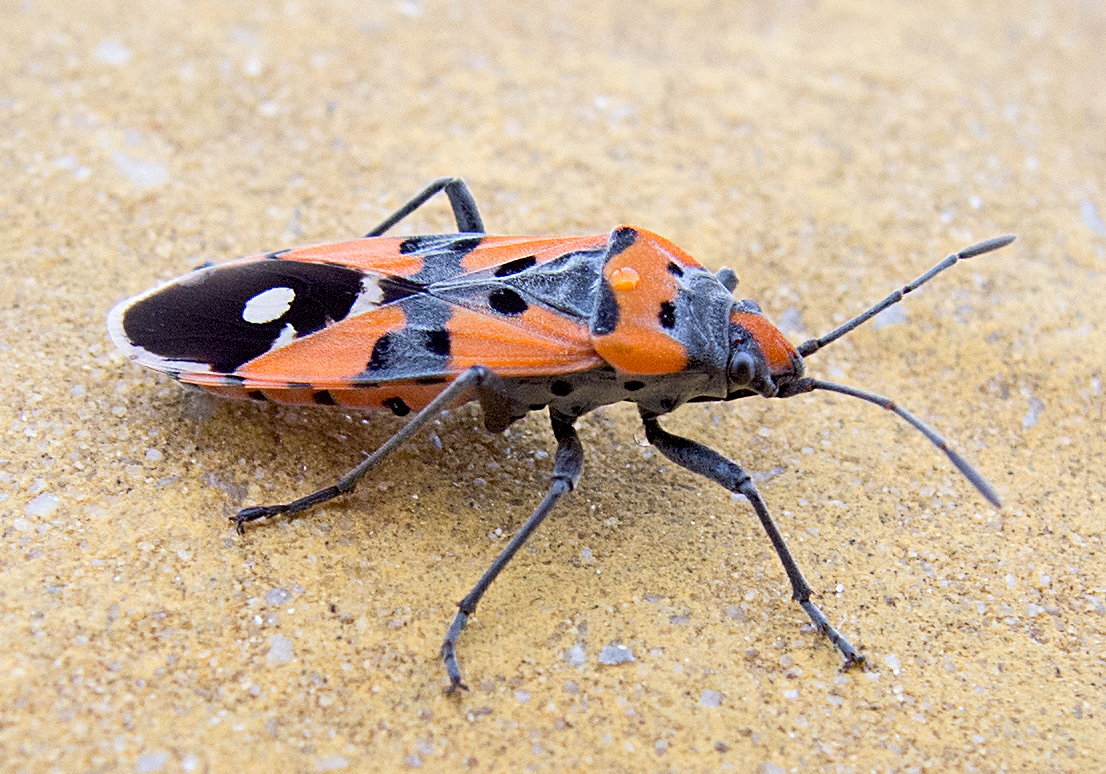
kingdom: Animalia
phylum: Arthropoda
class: Insecta
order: Hemiptera
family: Lygaeidae
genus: Lygaeus
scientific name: Lygaeus simulans
